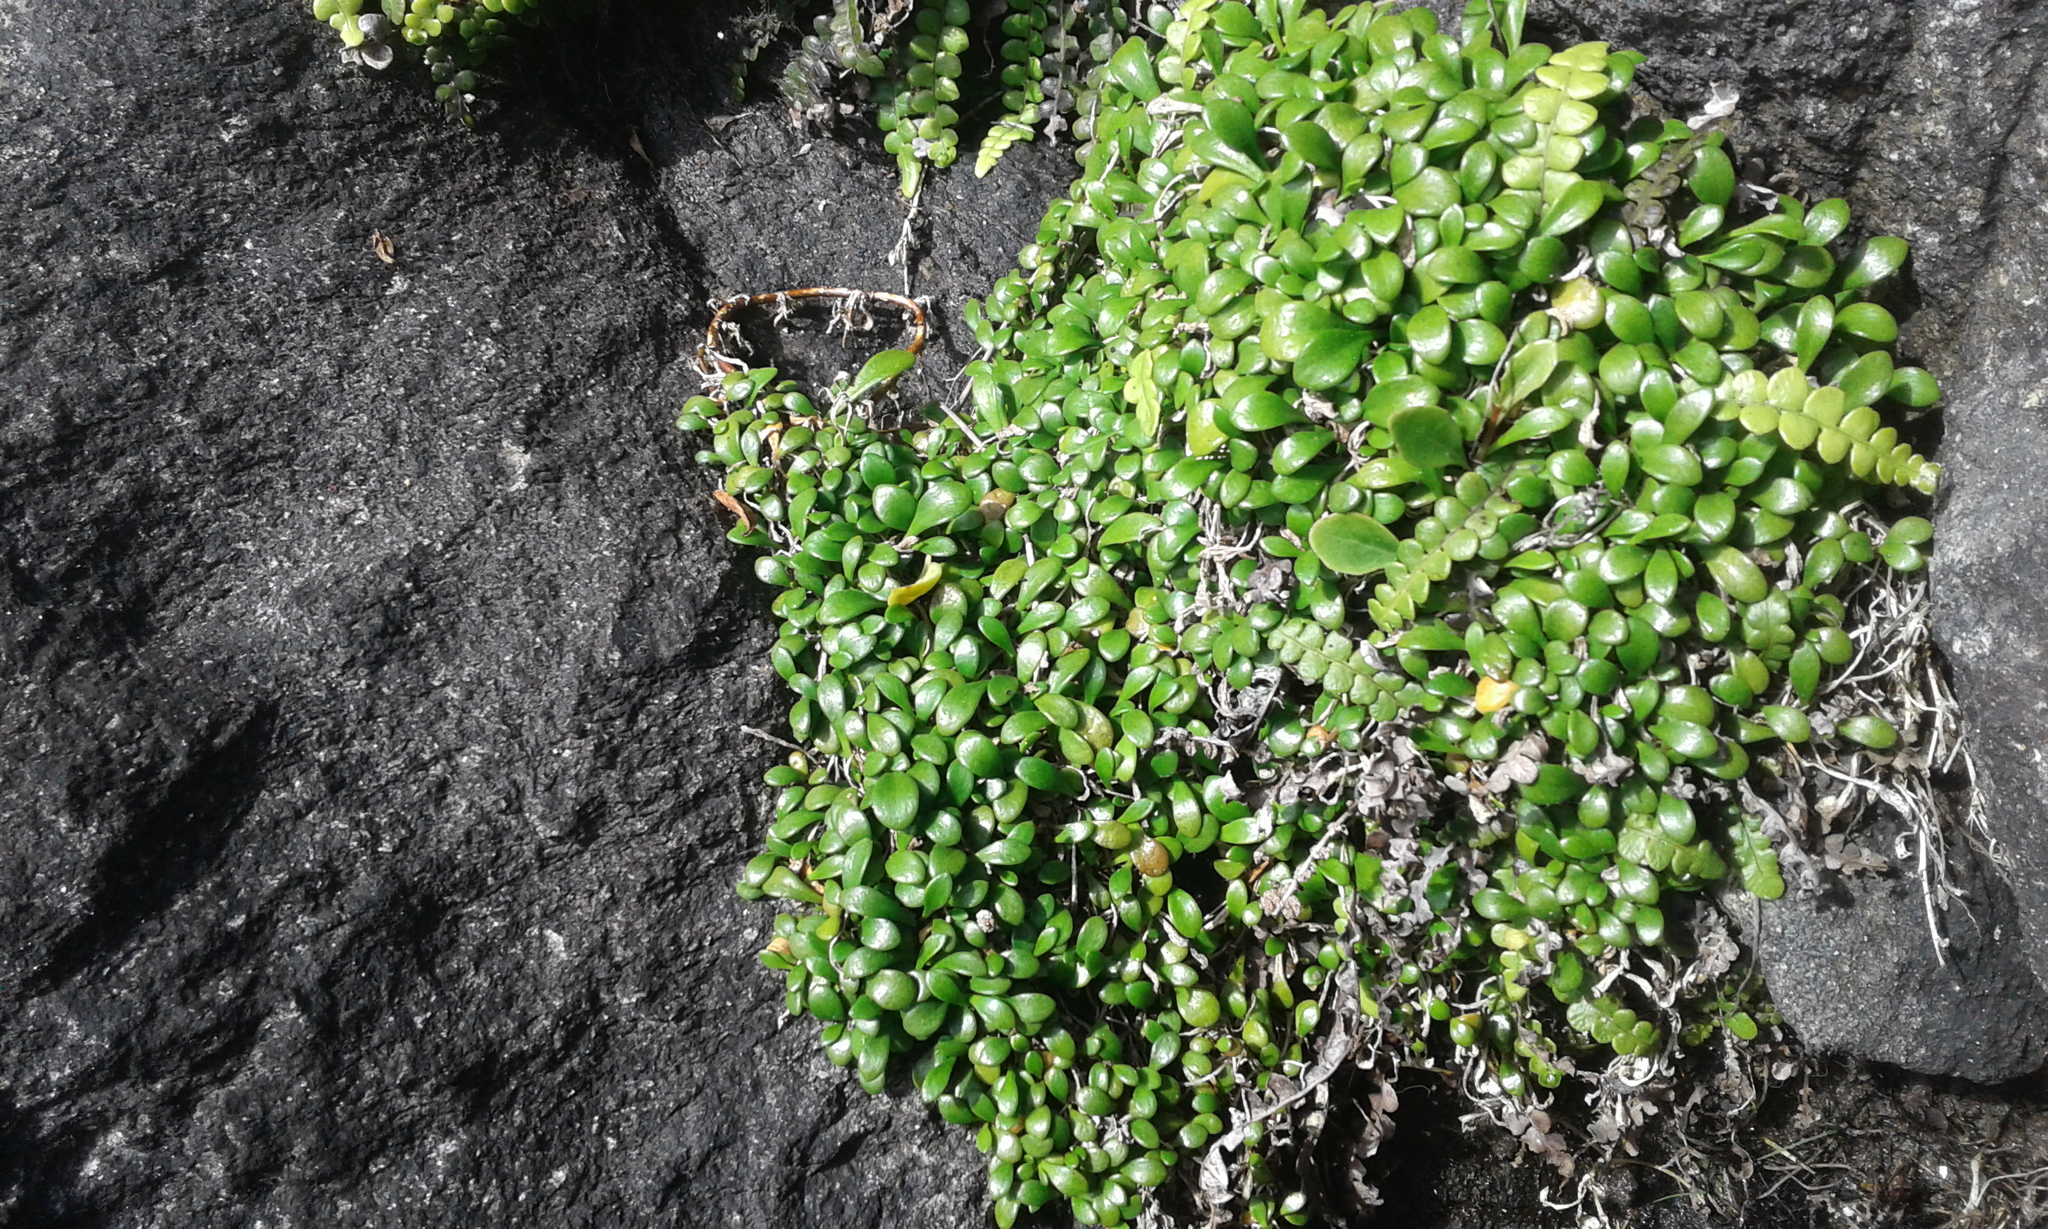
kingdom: Plantae
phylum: Tracheophyta
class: Magnoliopsida
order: Asterales
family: Goodeniaceae
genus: Goodenia
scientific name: Goodenia radicans
